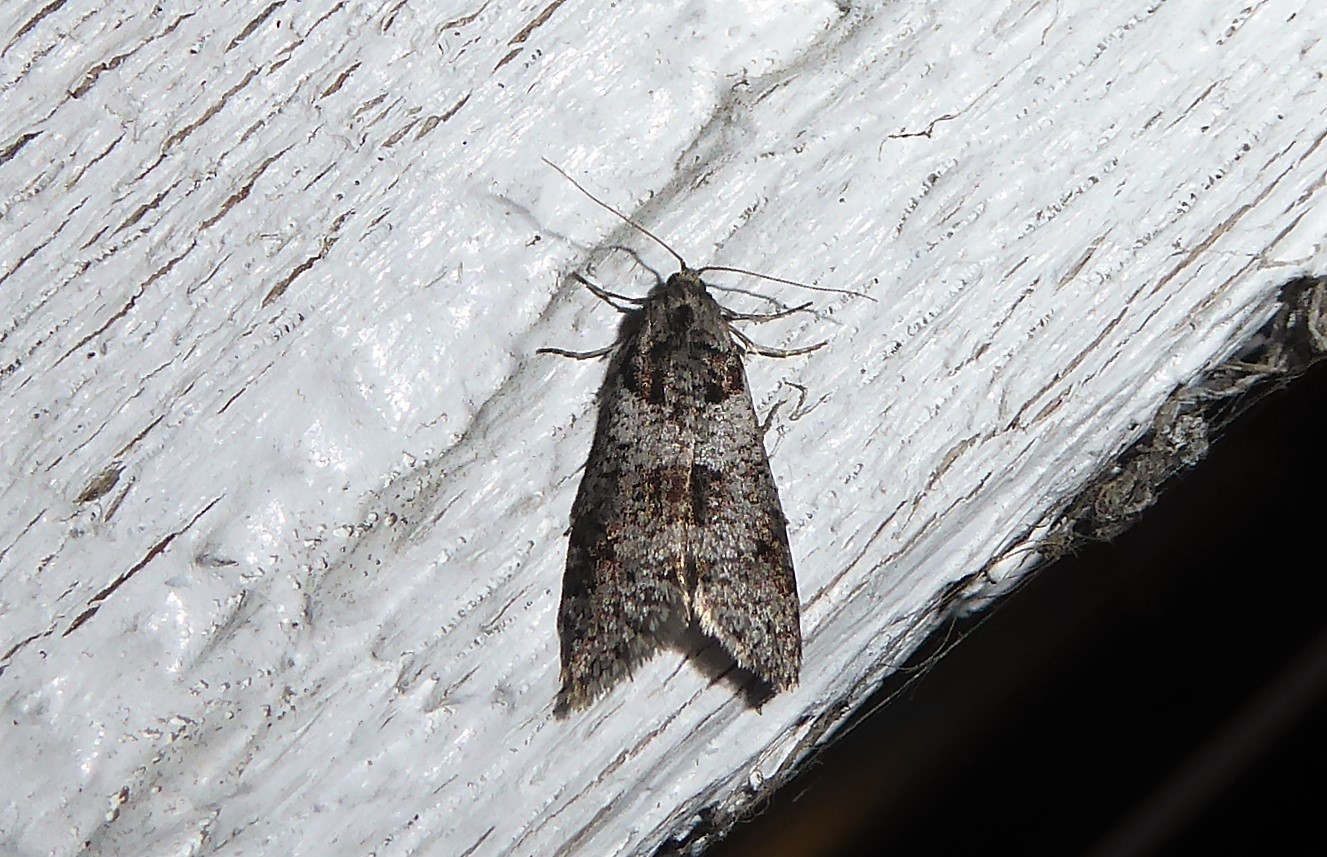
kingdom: Animalia
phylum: Arthropoda
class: Insecta
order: Lepidoptera
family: Psychidae
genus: Lepidoscia
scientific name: Lepidoscia heliochares
